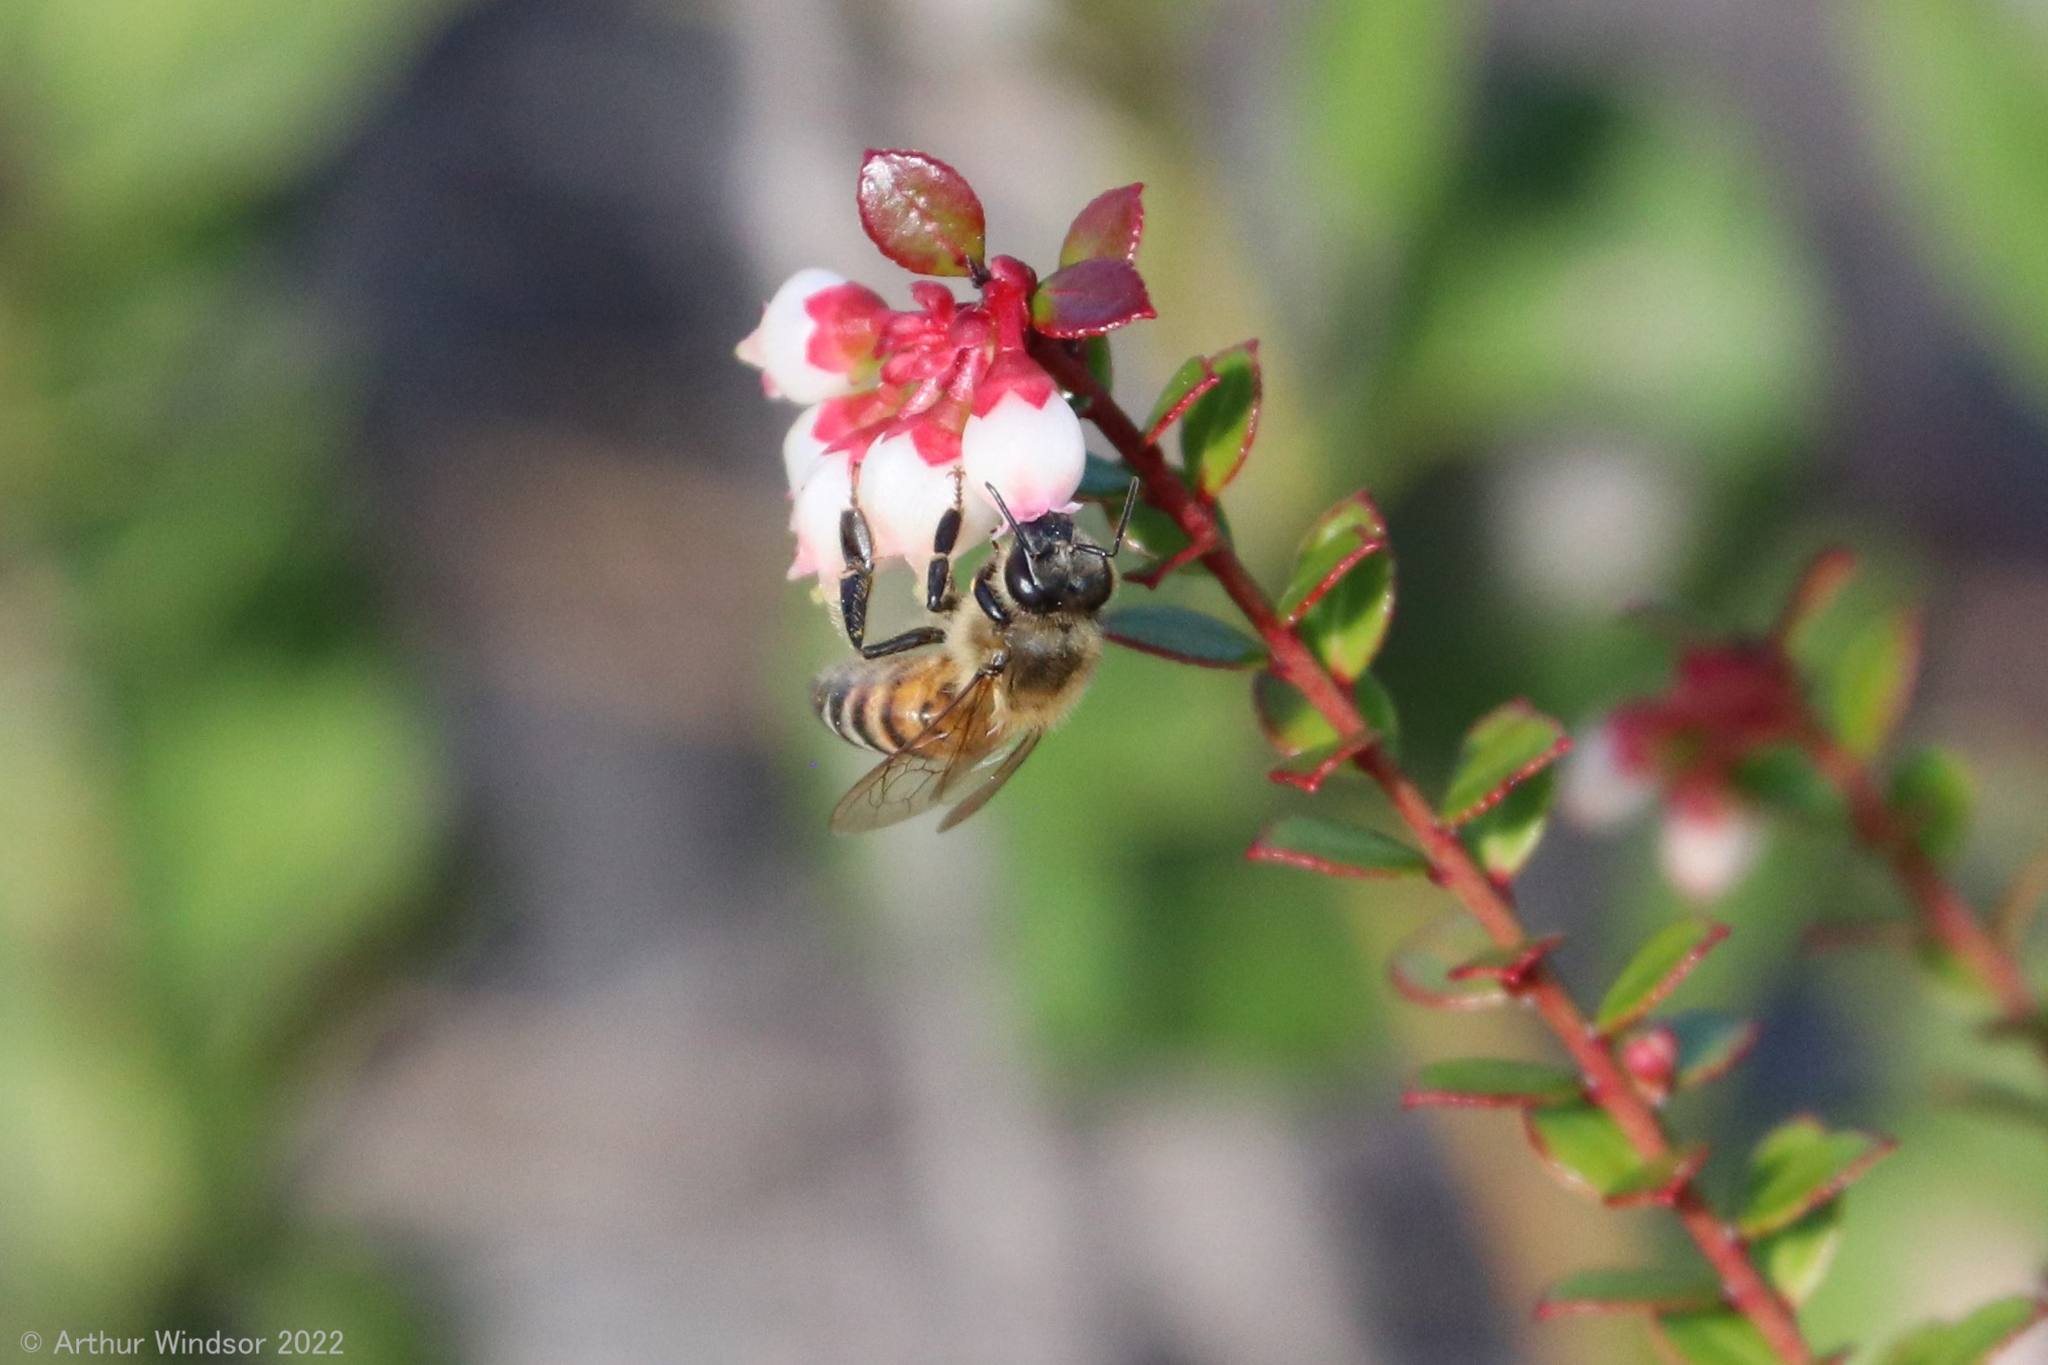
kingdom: Animalia
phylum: Arthropoda
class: Insecta
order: Hymenoptera
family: Apidae
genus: Apis
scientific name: Apis mellifera
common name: Honey bee
